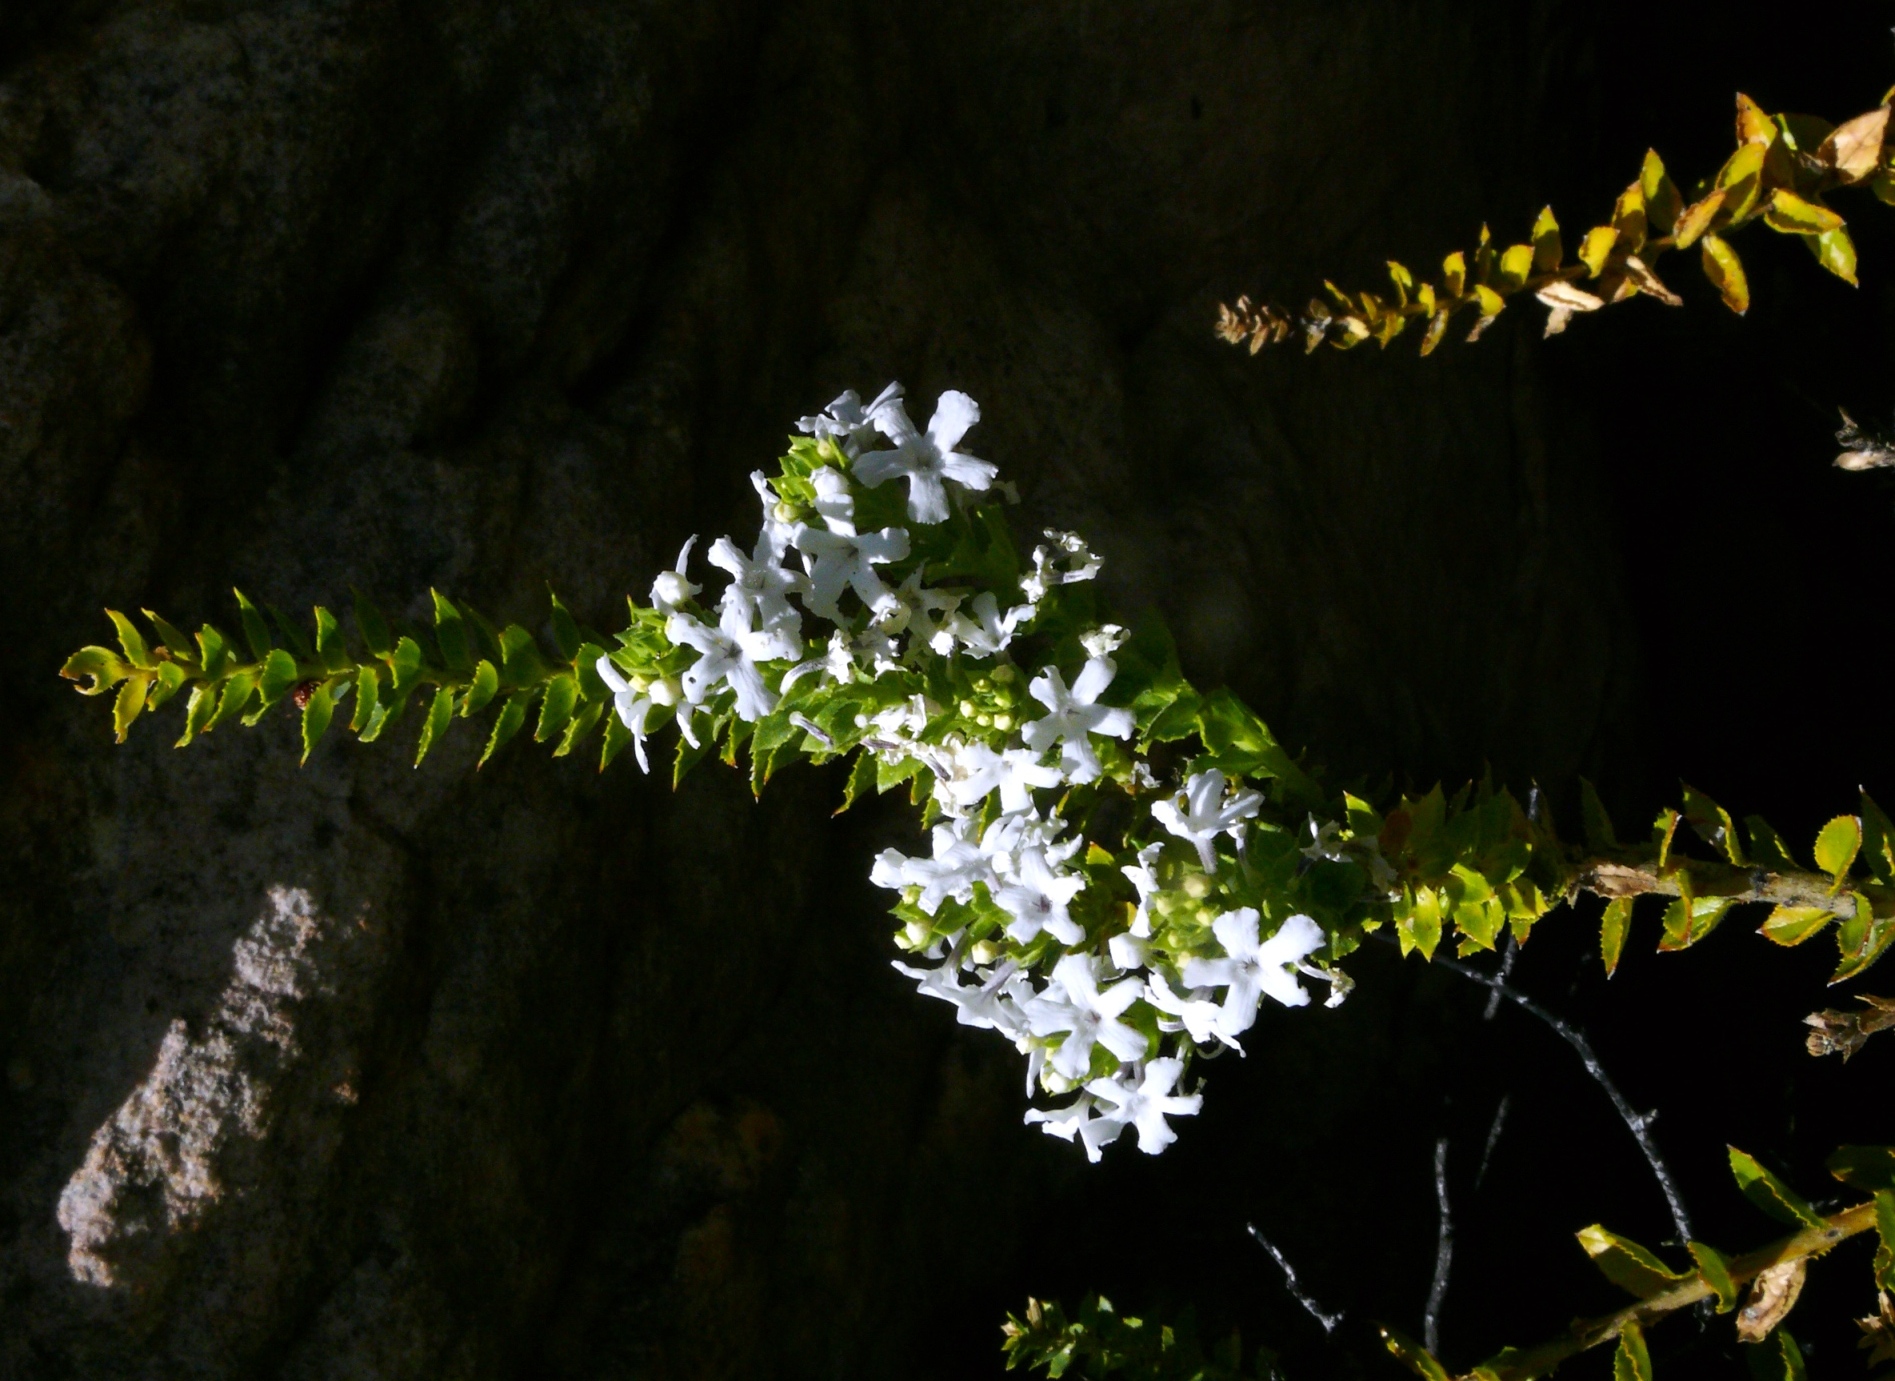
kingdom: Plantae
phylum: Tracheophyta
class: Magnoliopsida
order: Lamiales
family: Scrophulariaceae
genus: Oftia
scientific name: Oftia africana
